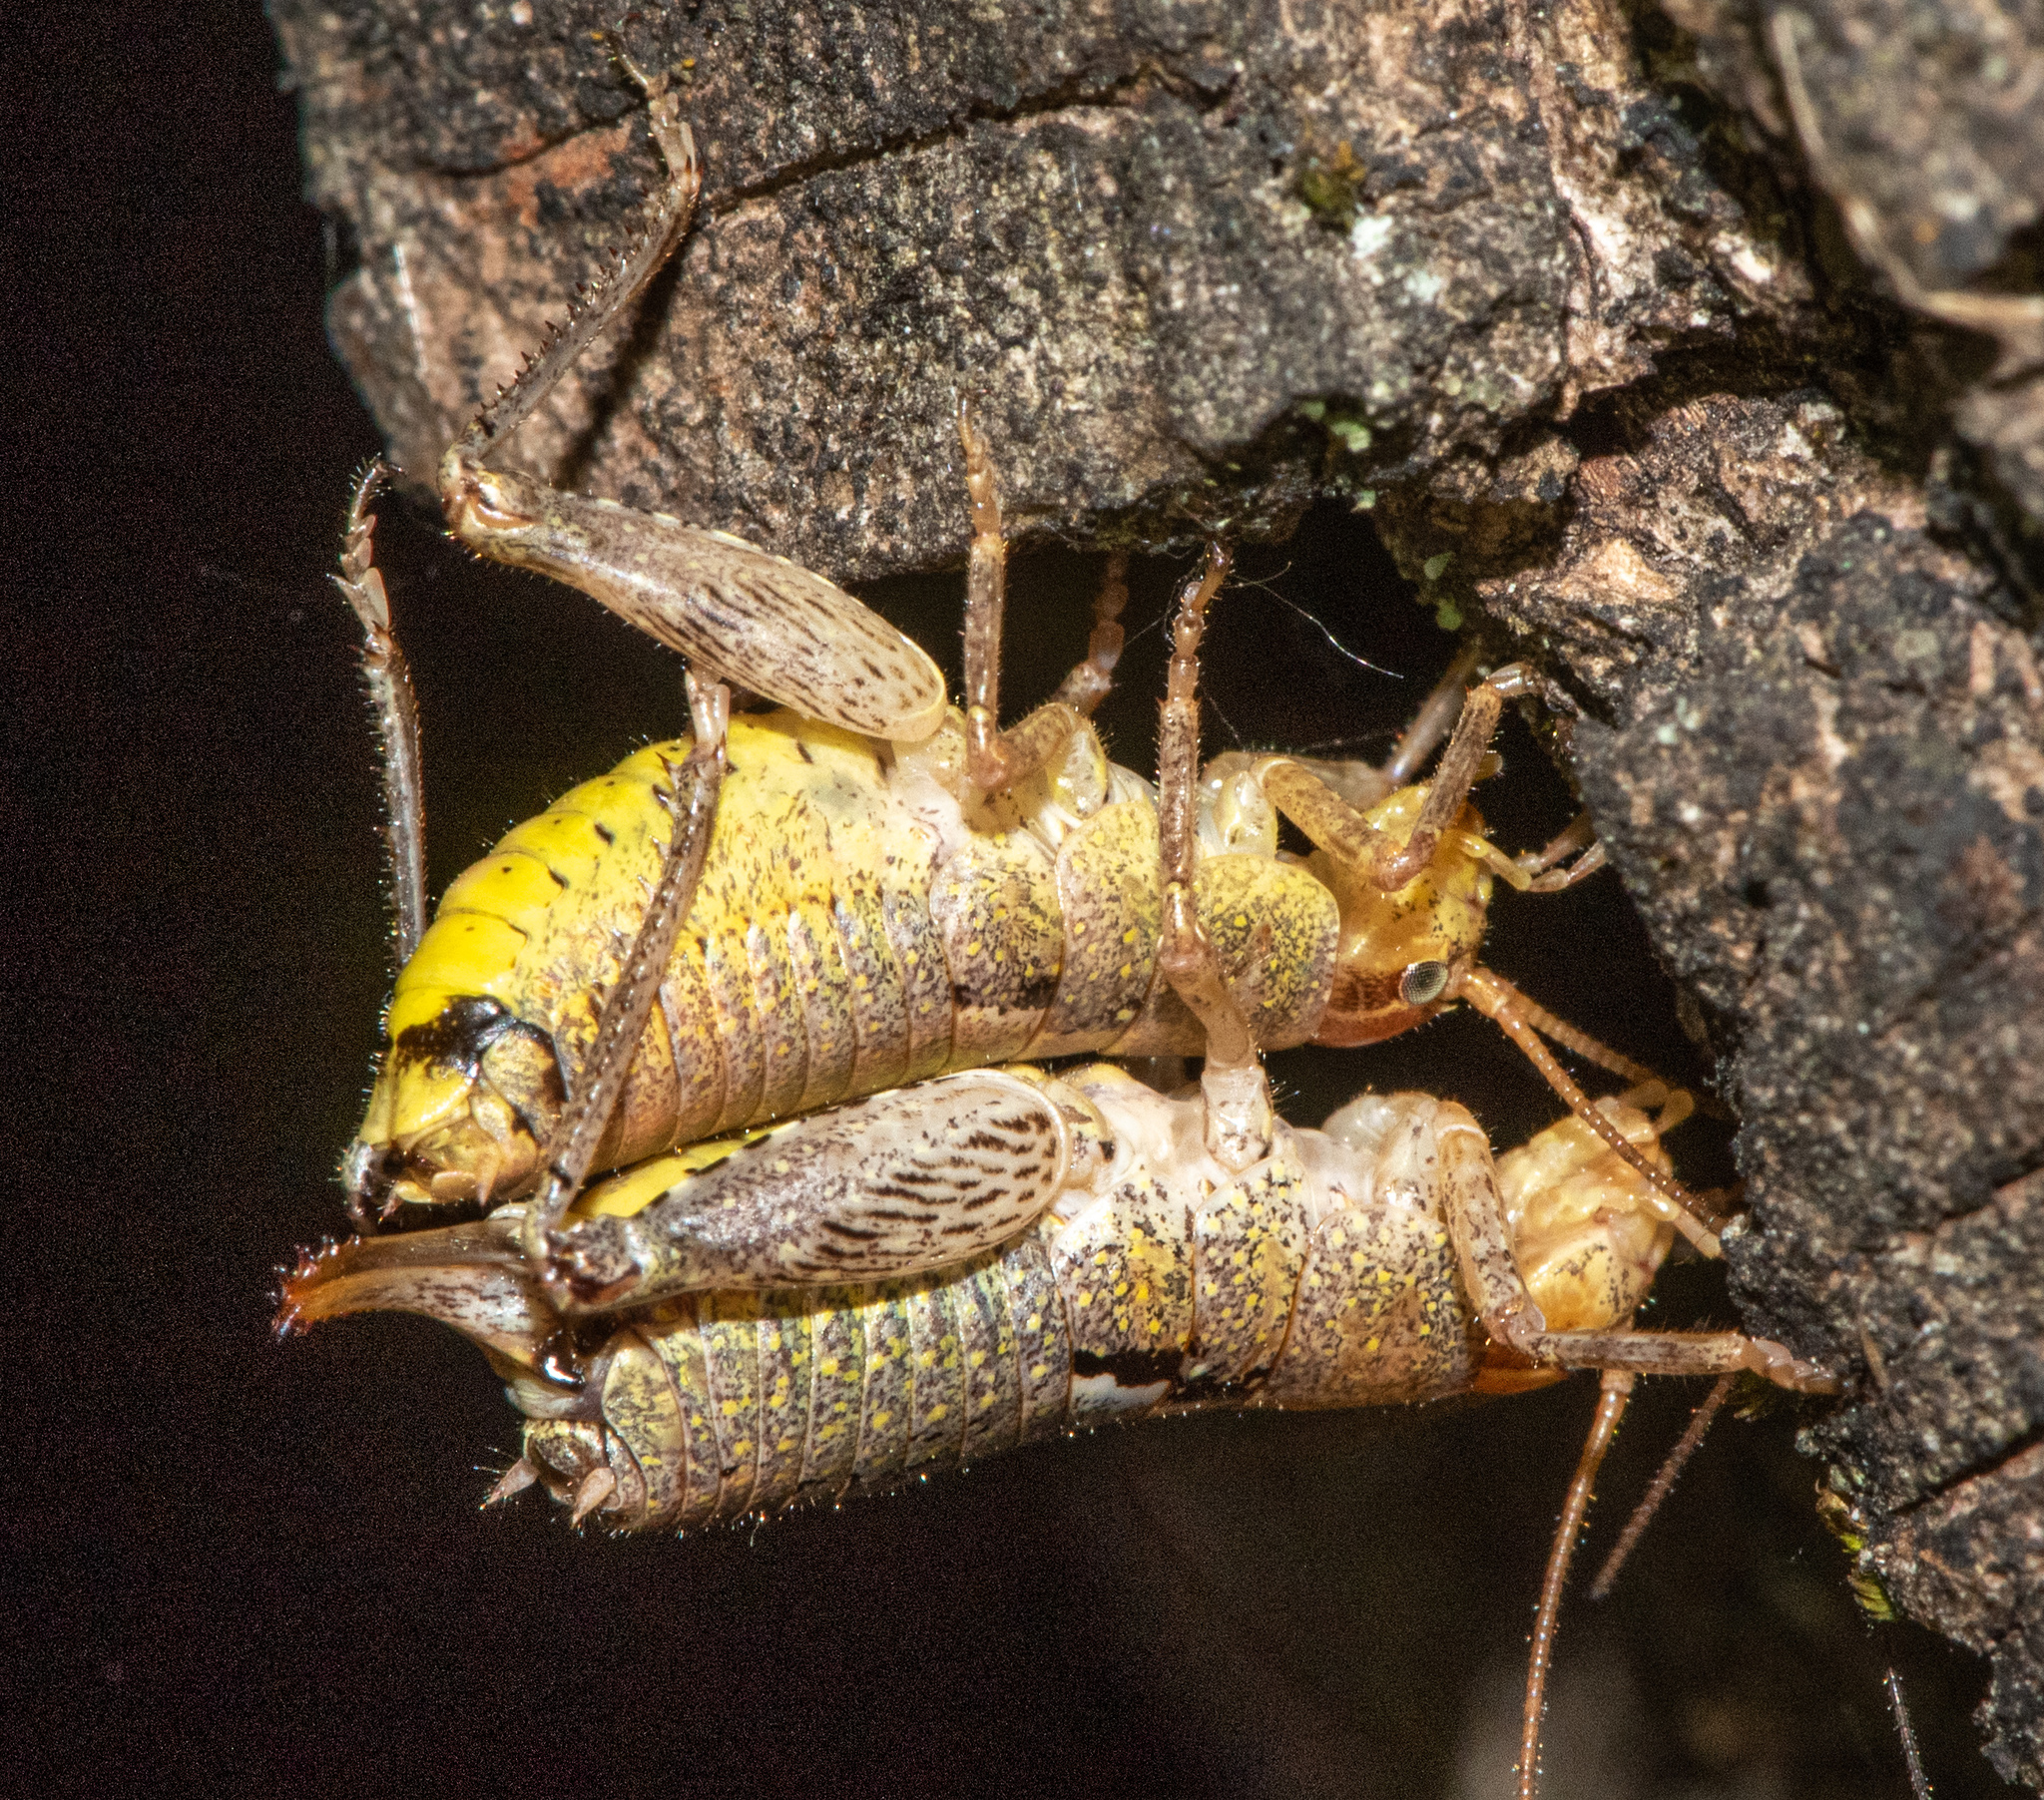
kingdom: Animalia
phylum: Arthropoda
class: Insecta
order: Orthoptera
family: Rhaphidophoridae
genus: Gammarotettix
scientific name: Gammarotettix bilobatus
